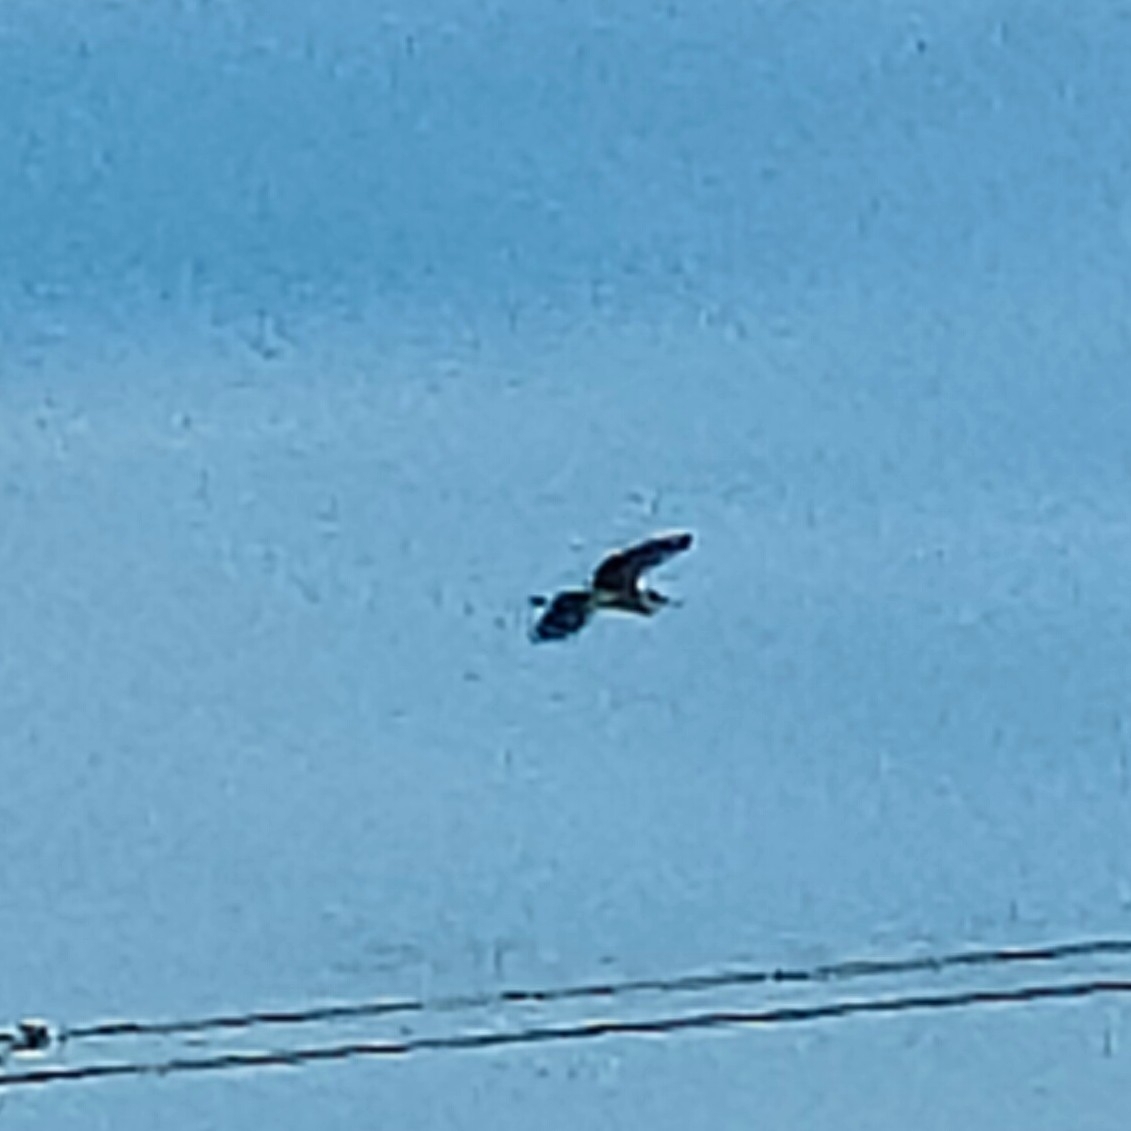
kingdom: Animalia
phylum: Chordata
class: Aves
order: Pelecaniformes
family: Ardeidae
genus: Ardea
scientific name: Ardea cinerea
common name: Grey heron
